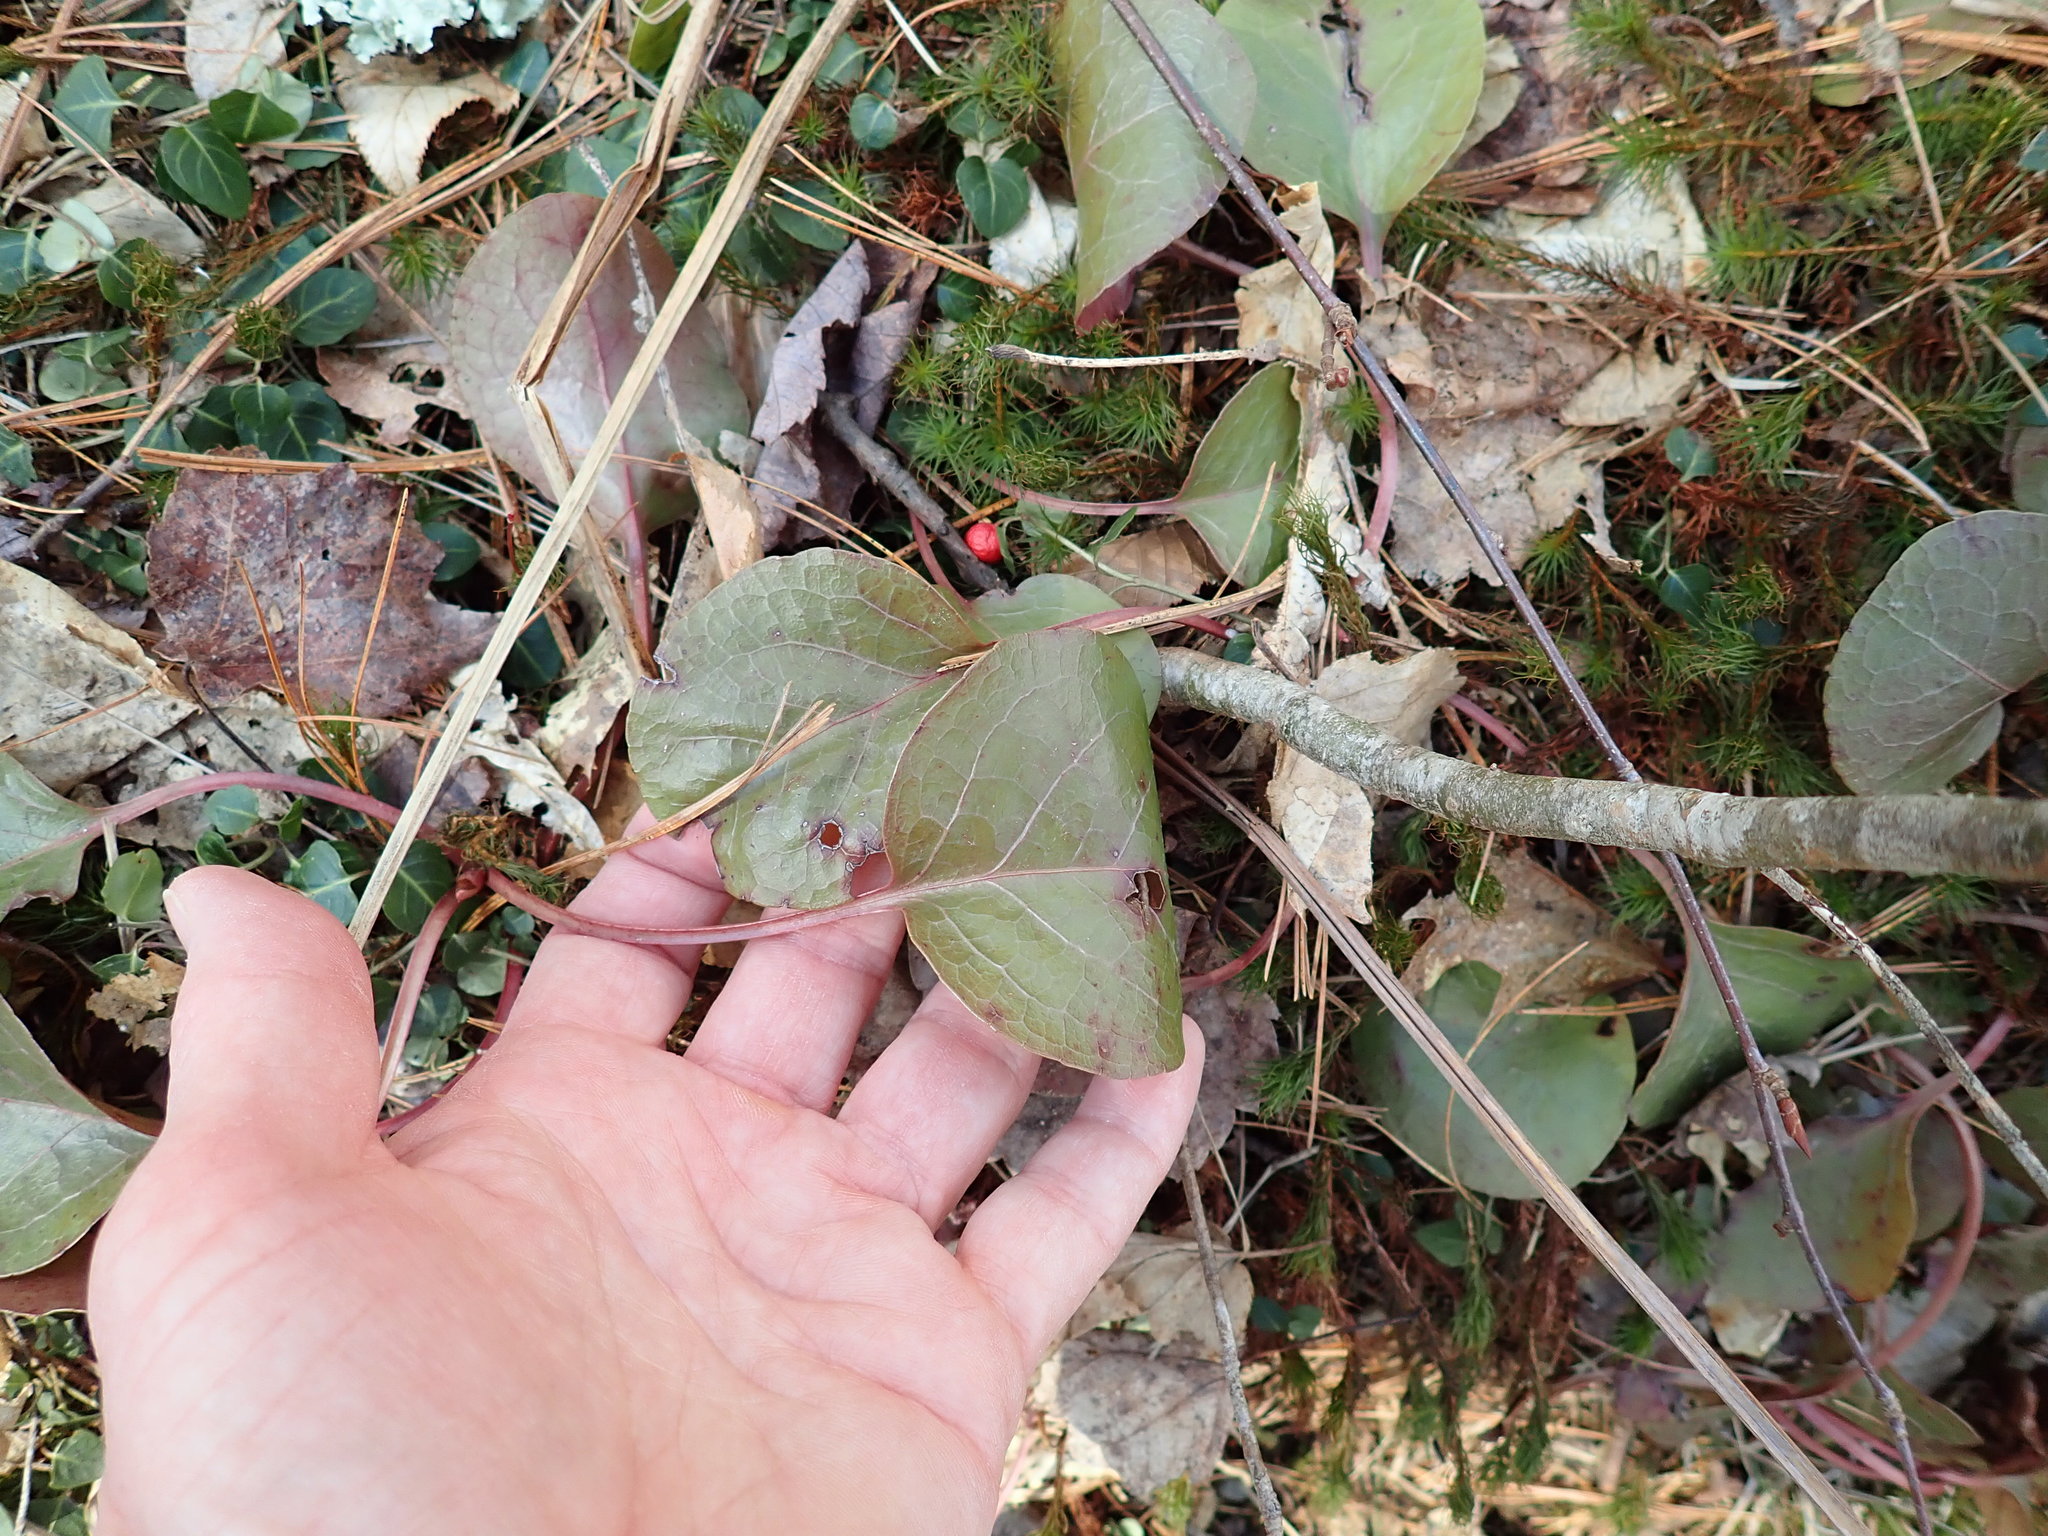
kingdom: Plantae
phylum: Tracheophyta
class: Magnoliopsida
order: Ericales
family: Ericaceae
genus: Pyrola
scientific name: Pyrola elliptica
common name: Shinleaf
